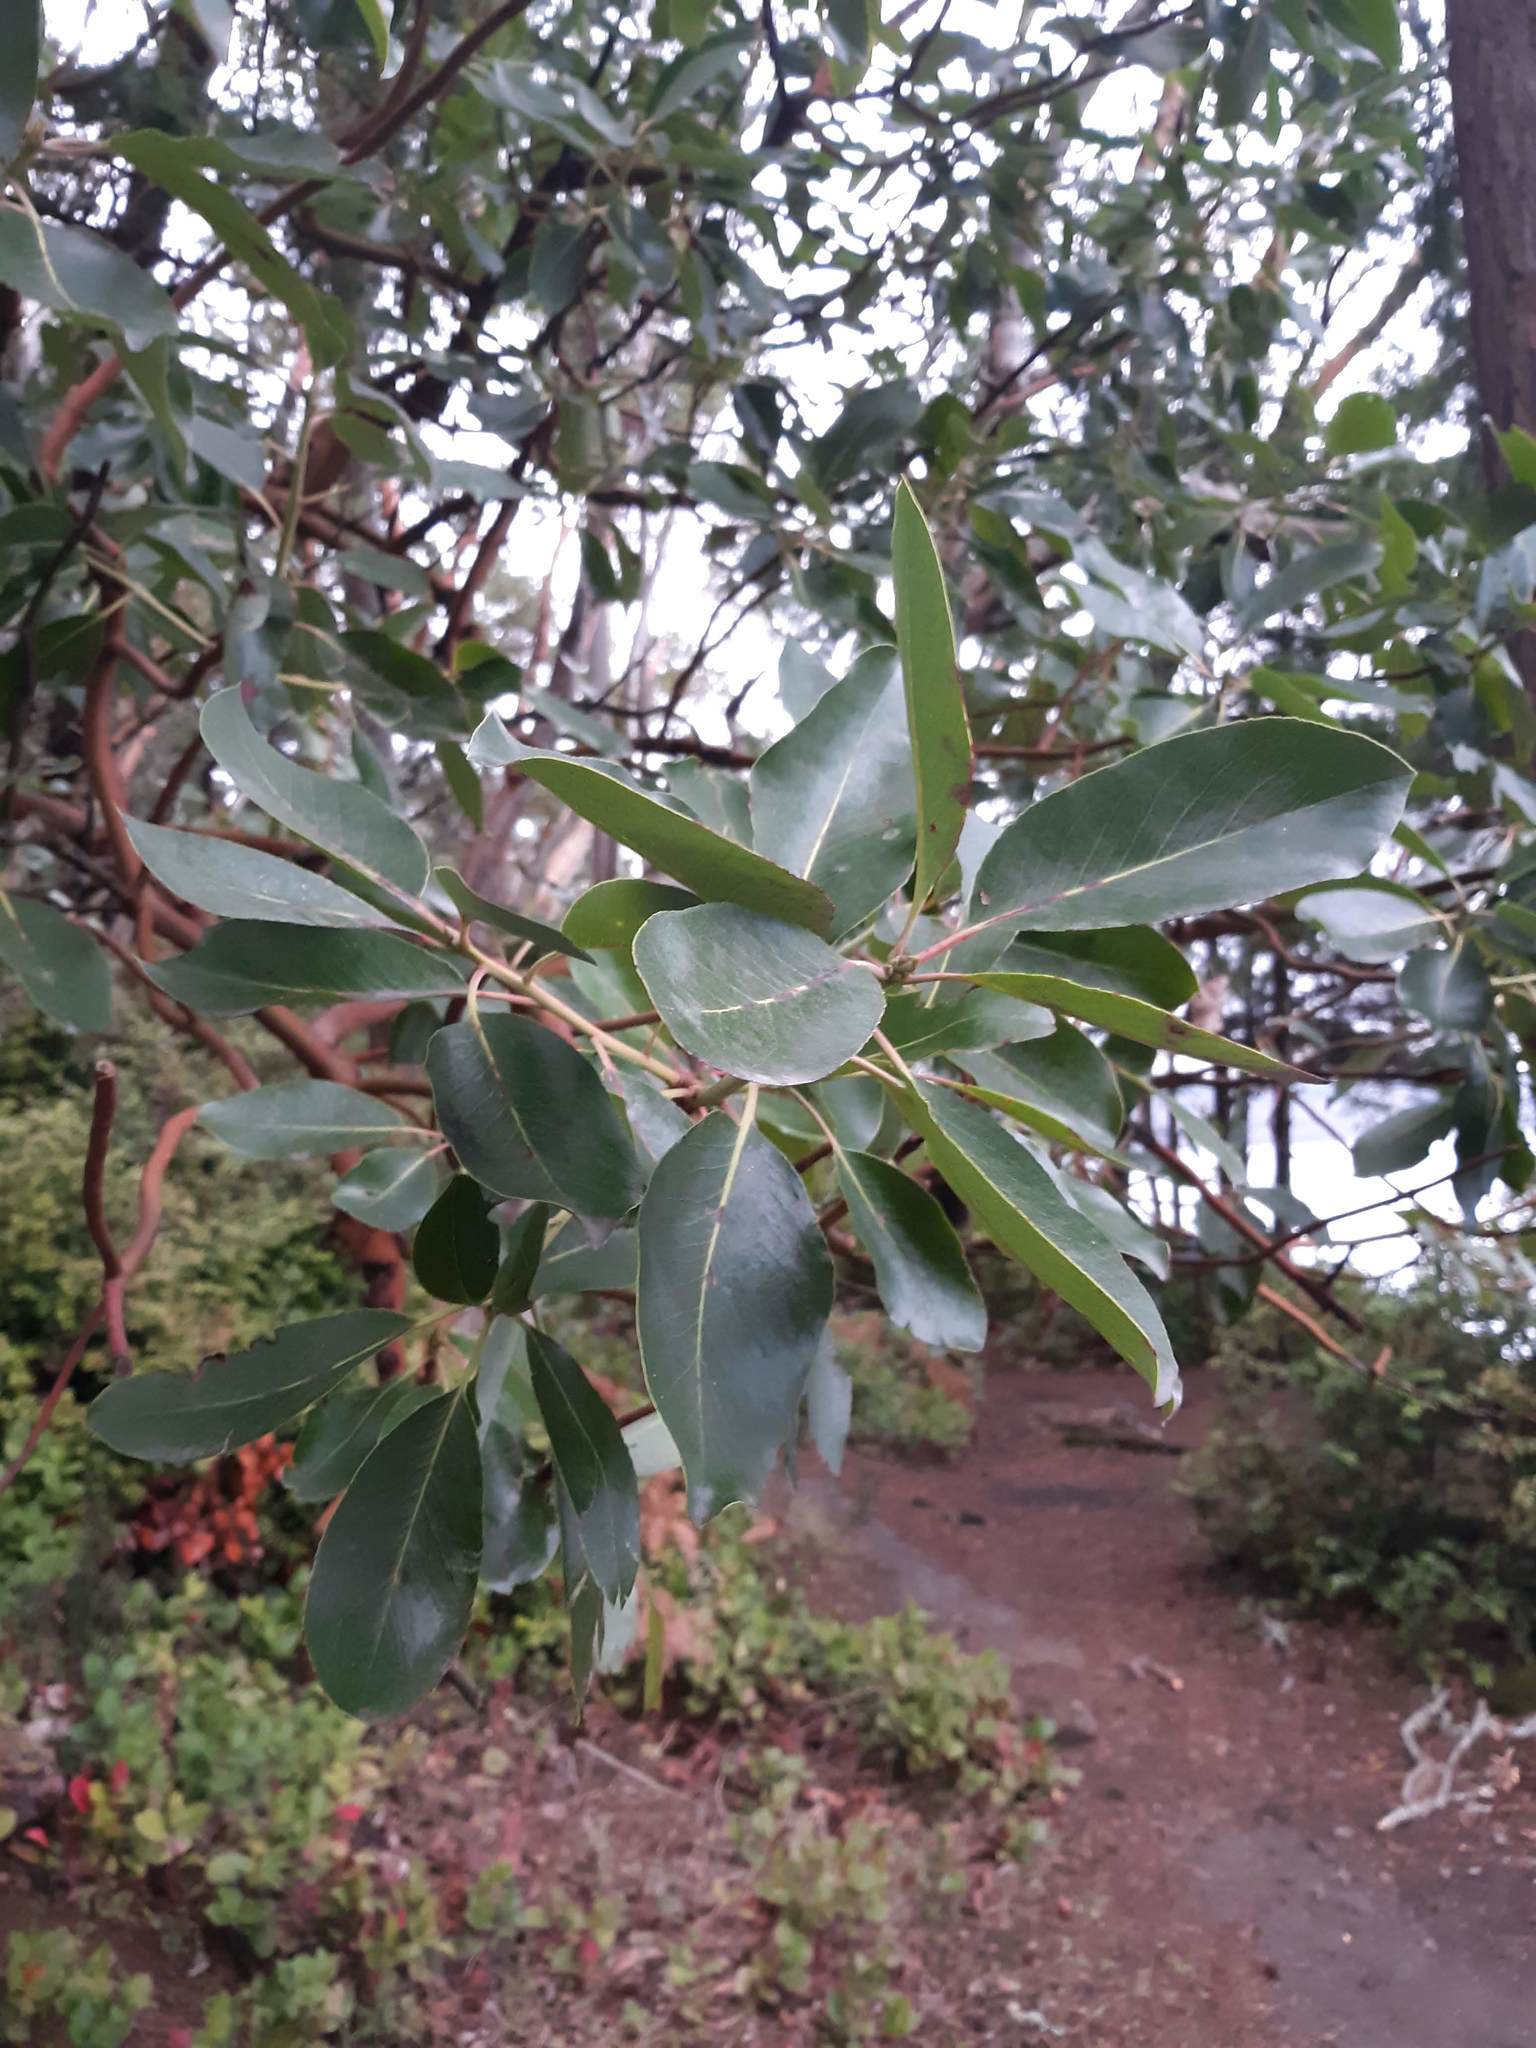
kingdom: Plantae
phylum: Tracheophyta
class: Magnoliopsida
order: Ericales
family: Ericaceae
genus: Arbutus
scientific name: Arbutus menziesii
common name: Pacific madrone
